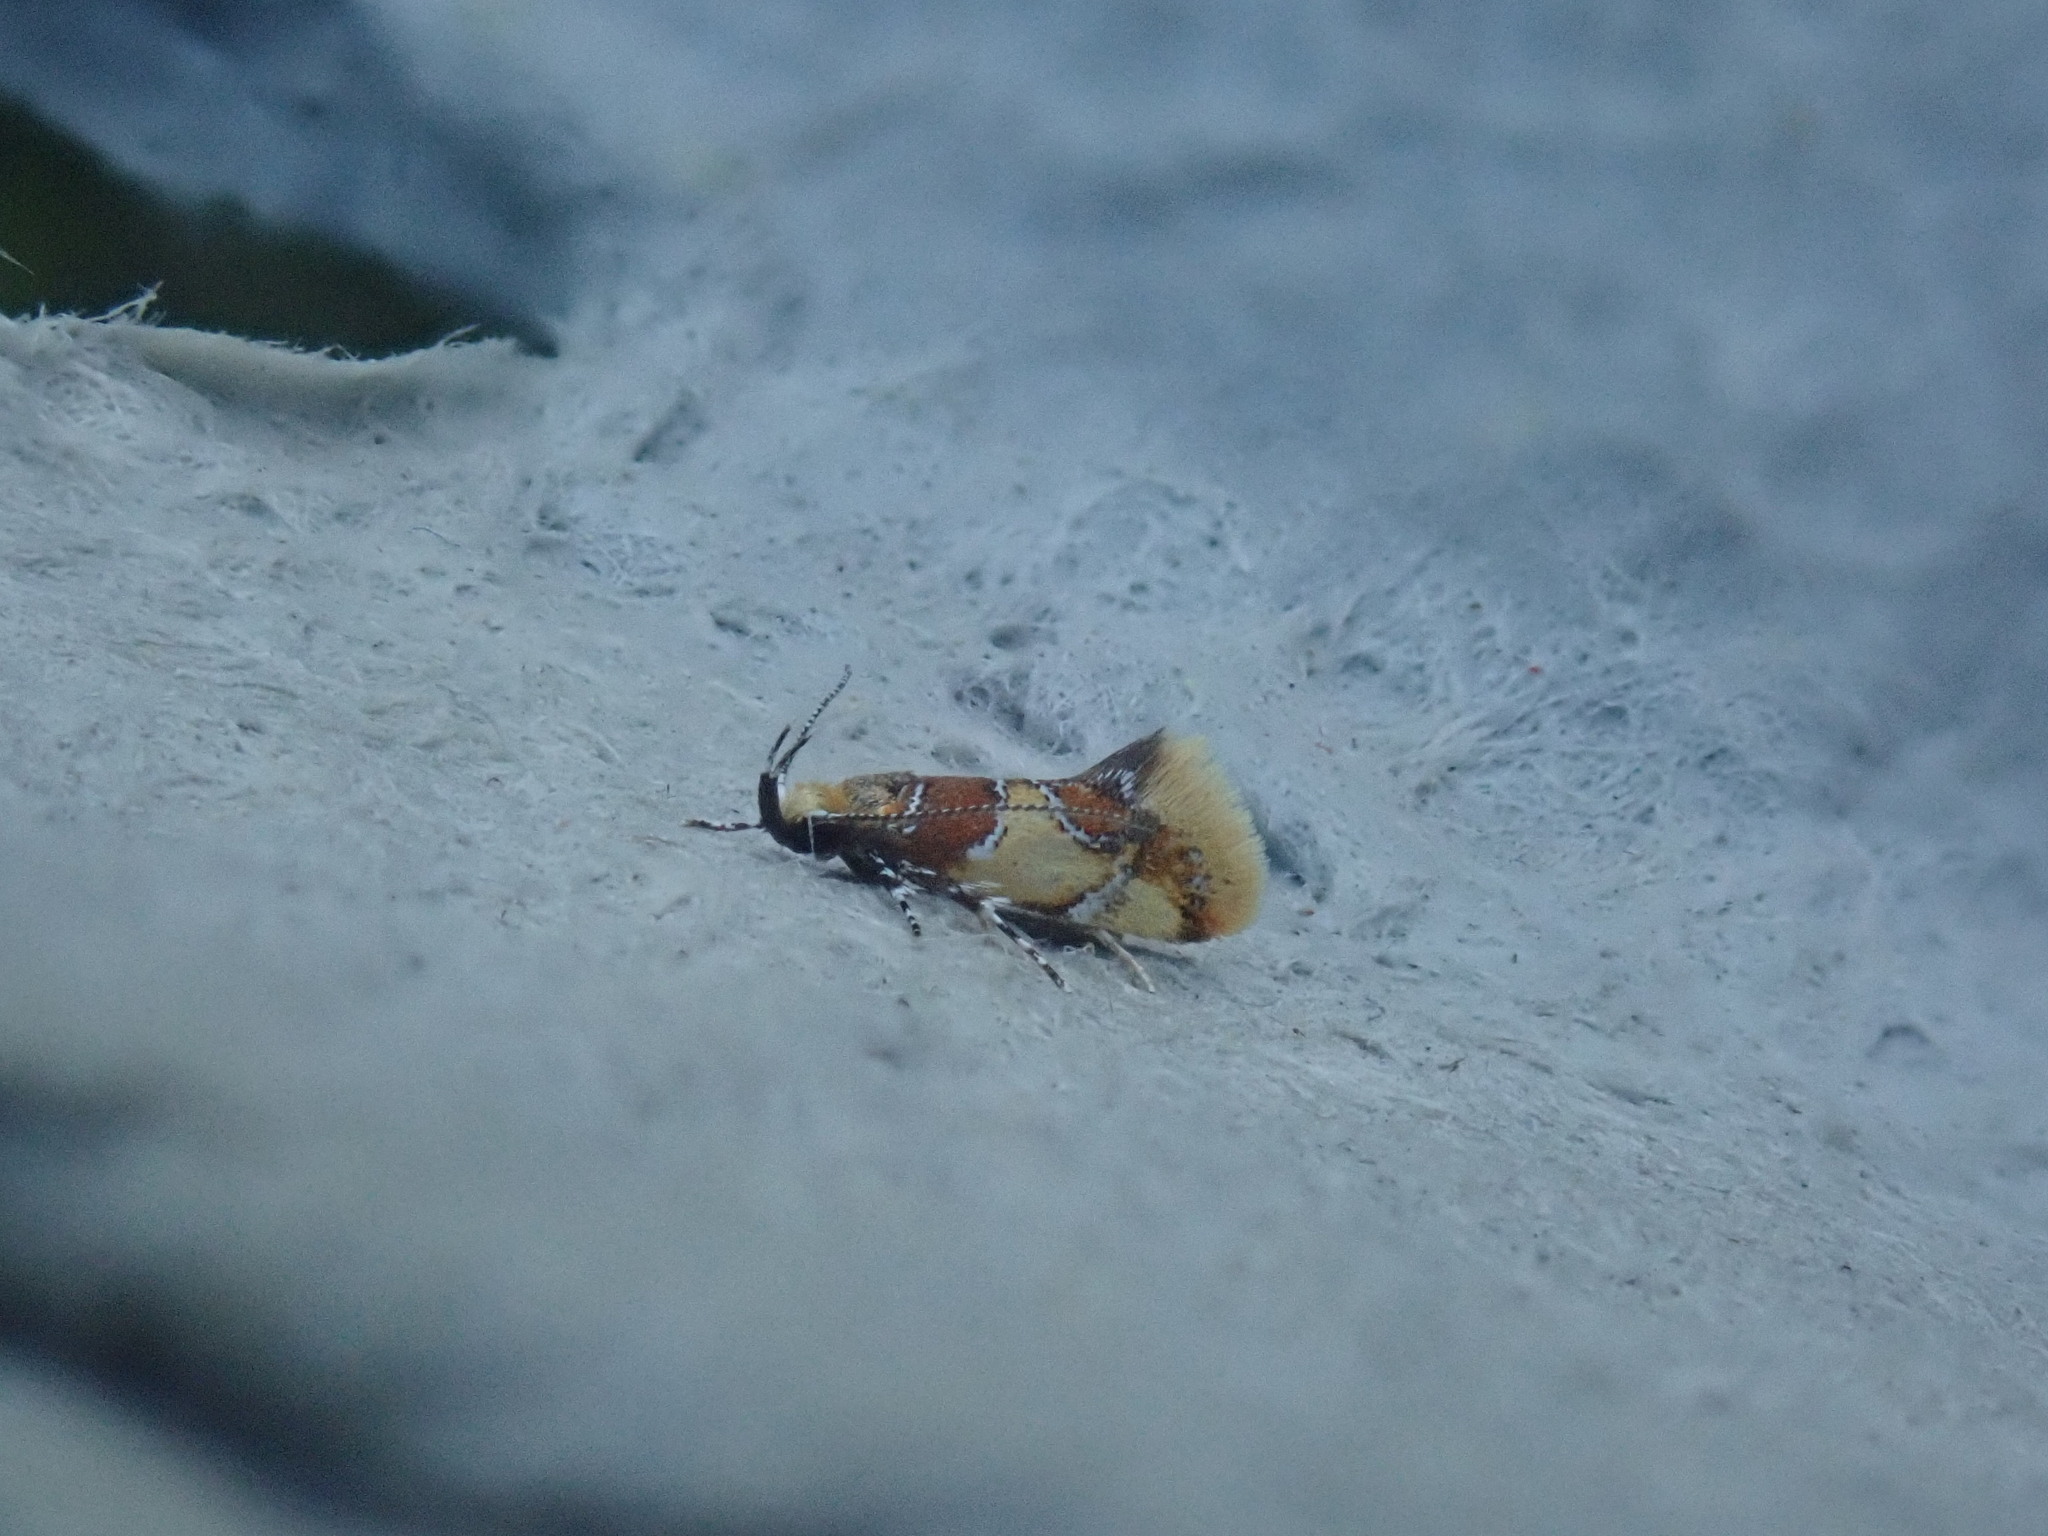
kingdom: Animalia
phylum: Arthropoda
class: Insecta
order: Lepidoptera
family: Oecophoridae
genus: Callima
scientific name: Callima argenticinctella
